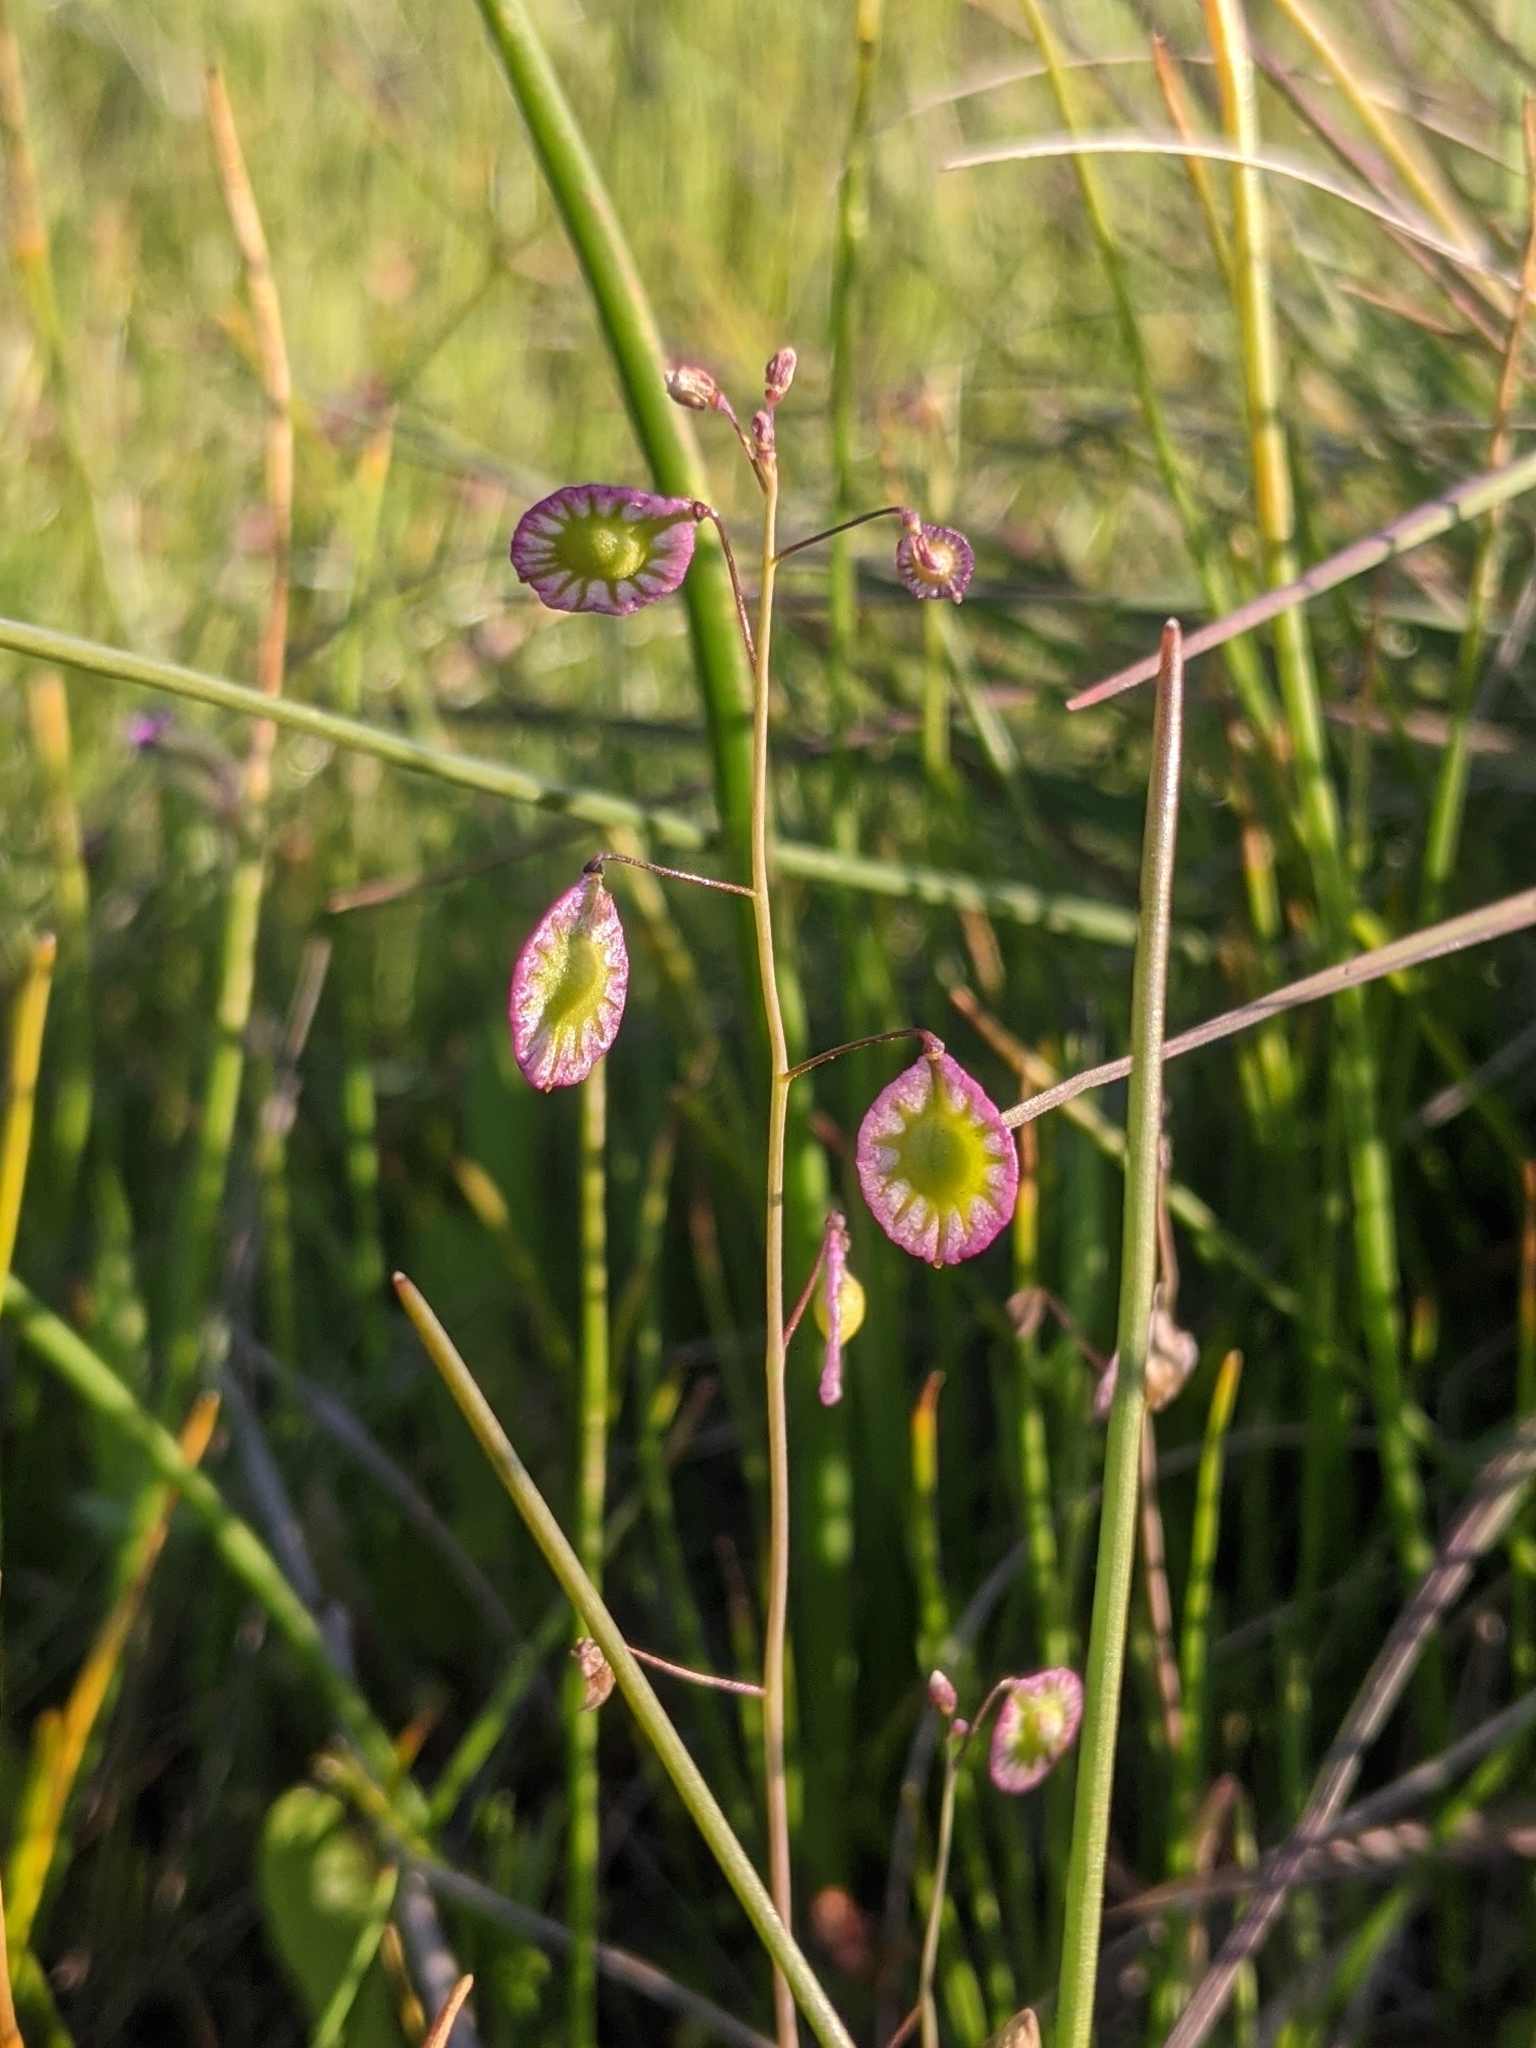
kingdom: Plantae
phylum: Tracheophyta
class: Magnoliopsida
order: Brassicales
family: Brassicaceae
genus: Thysanocarpus
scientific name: Thysanocarpus radians
